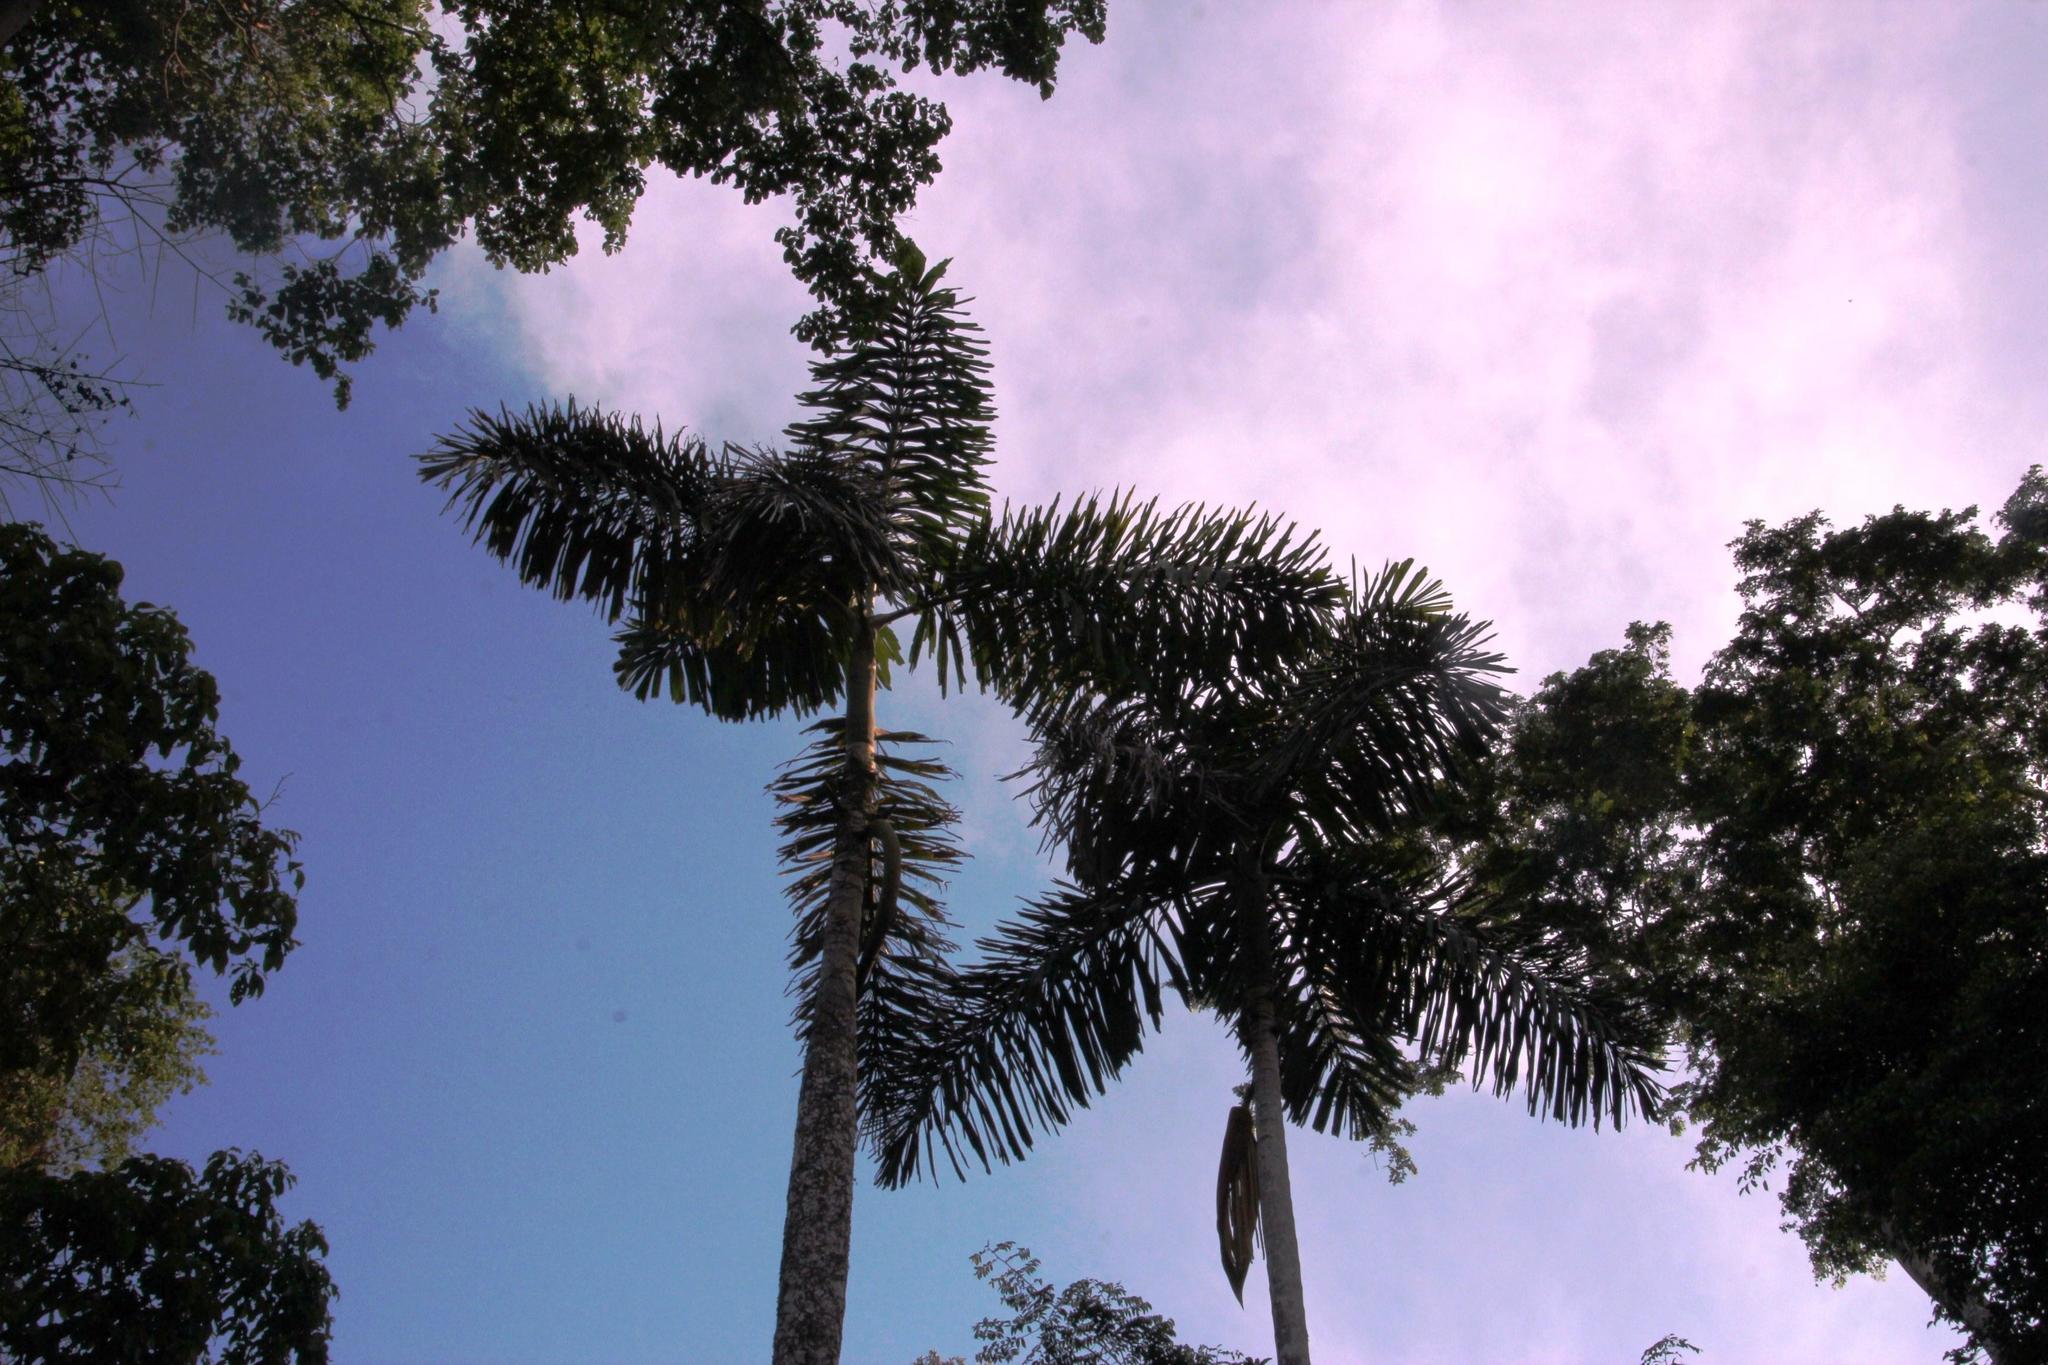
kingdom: Plantae
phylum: Tracheophyta
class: Liliopsida
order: Arecales
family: Arecaceae
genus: Iriartea
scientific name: Iriartea deltoidea
